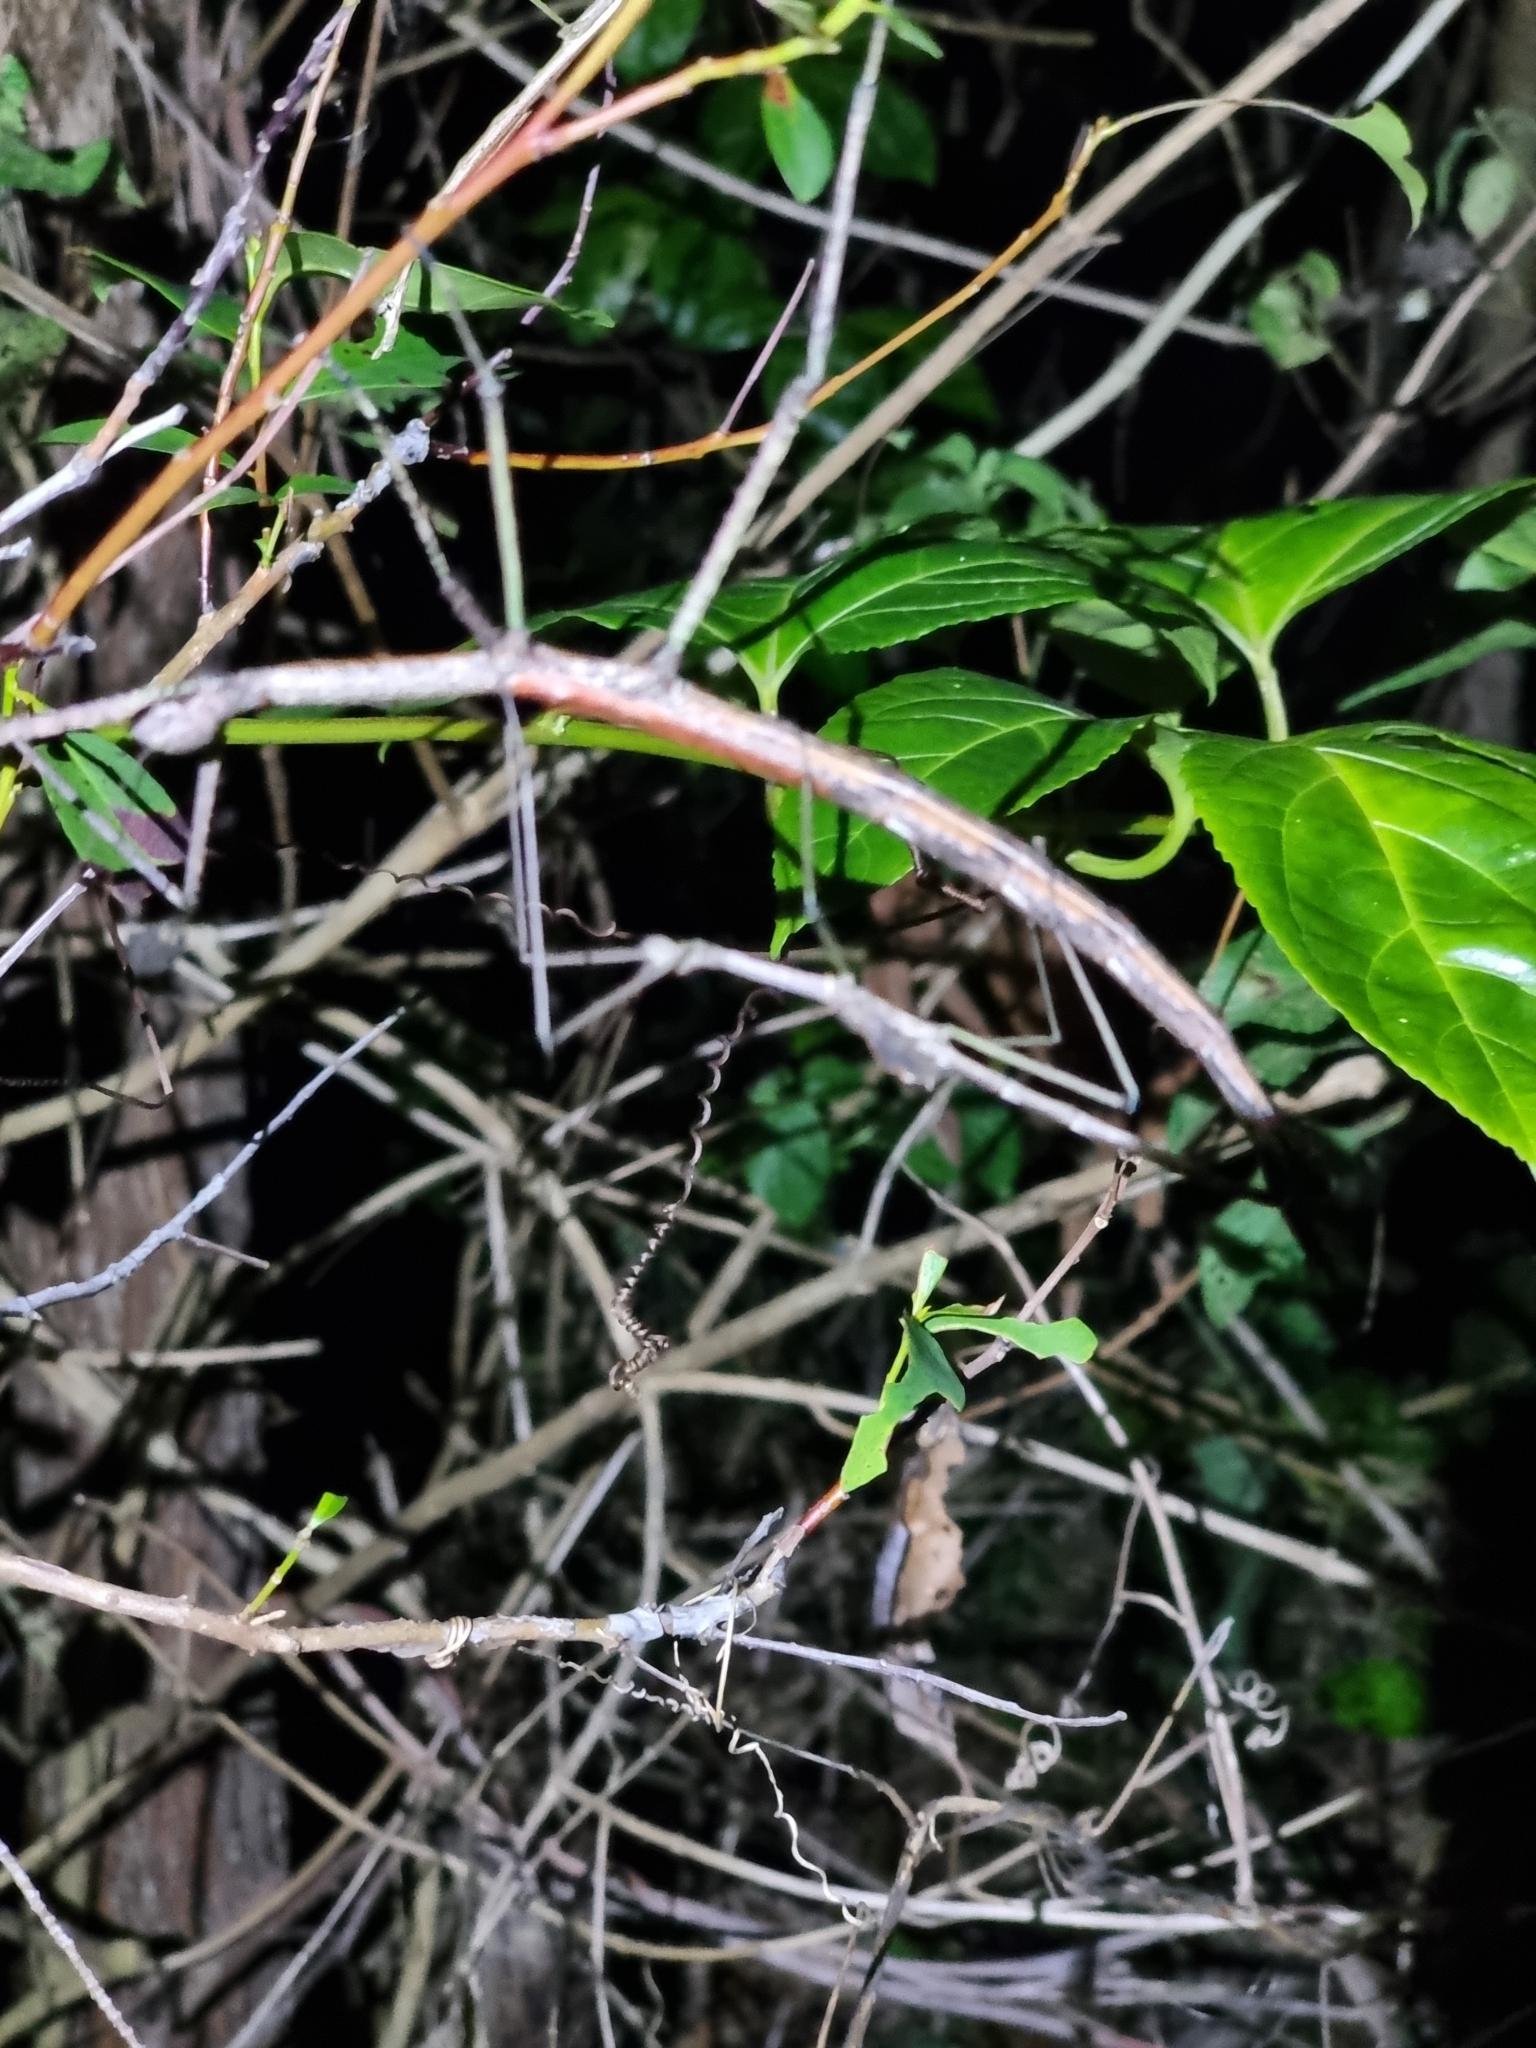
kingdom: Animalia
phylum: Arthropoda
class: Insecta
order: Phasmida
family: Phasmatidae
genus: Anchiale
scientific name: Anchiale austrotessulata
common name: Tessellated stick-insect
